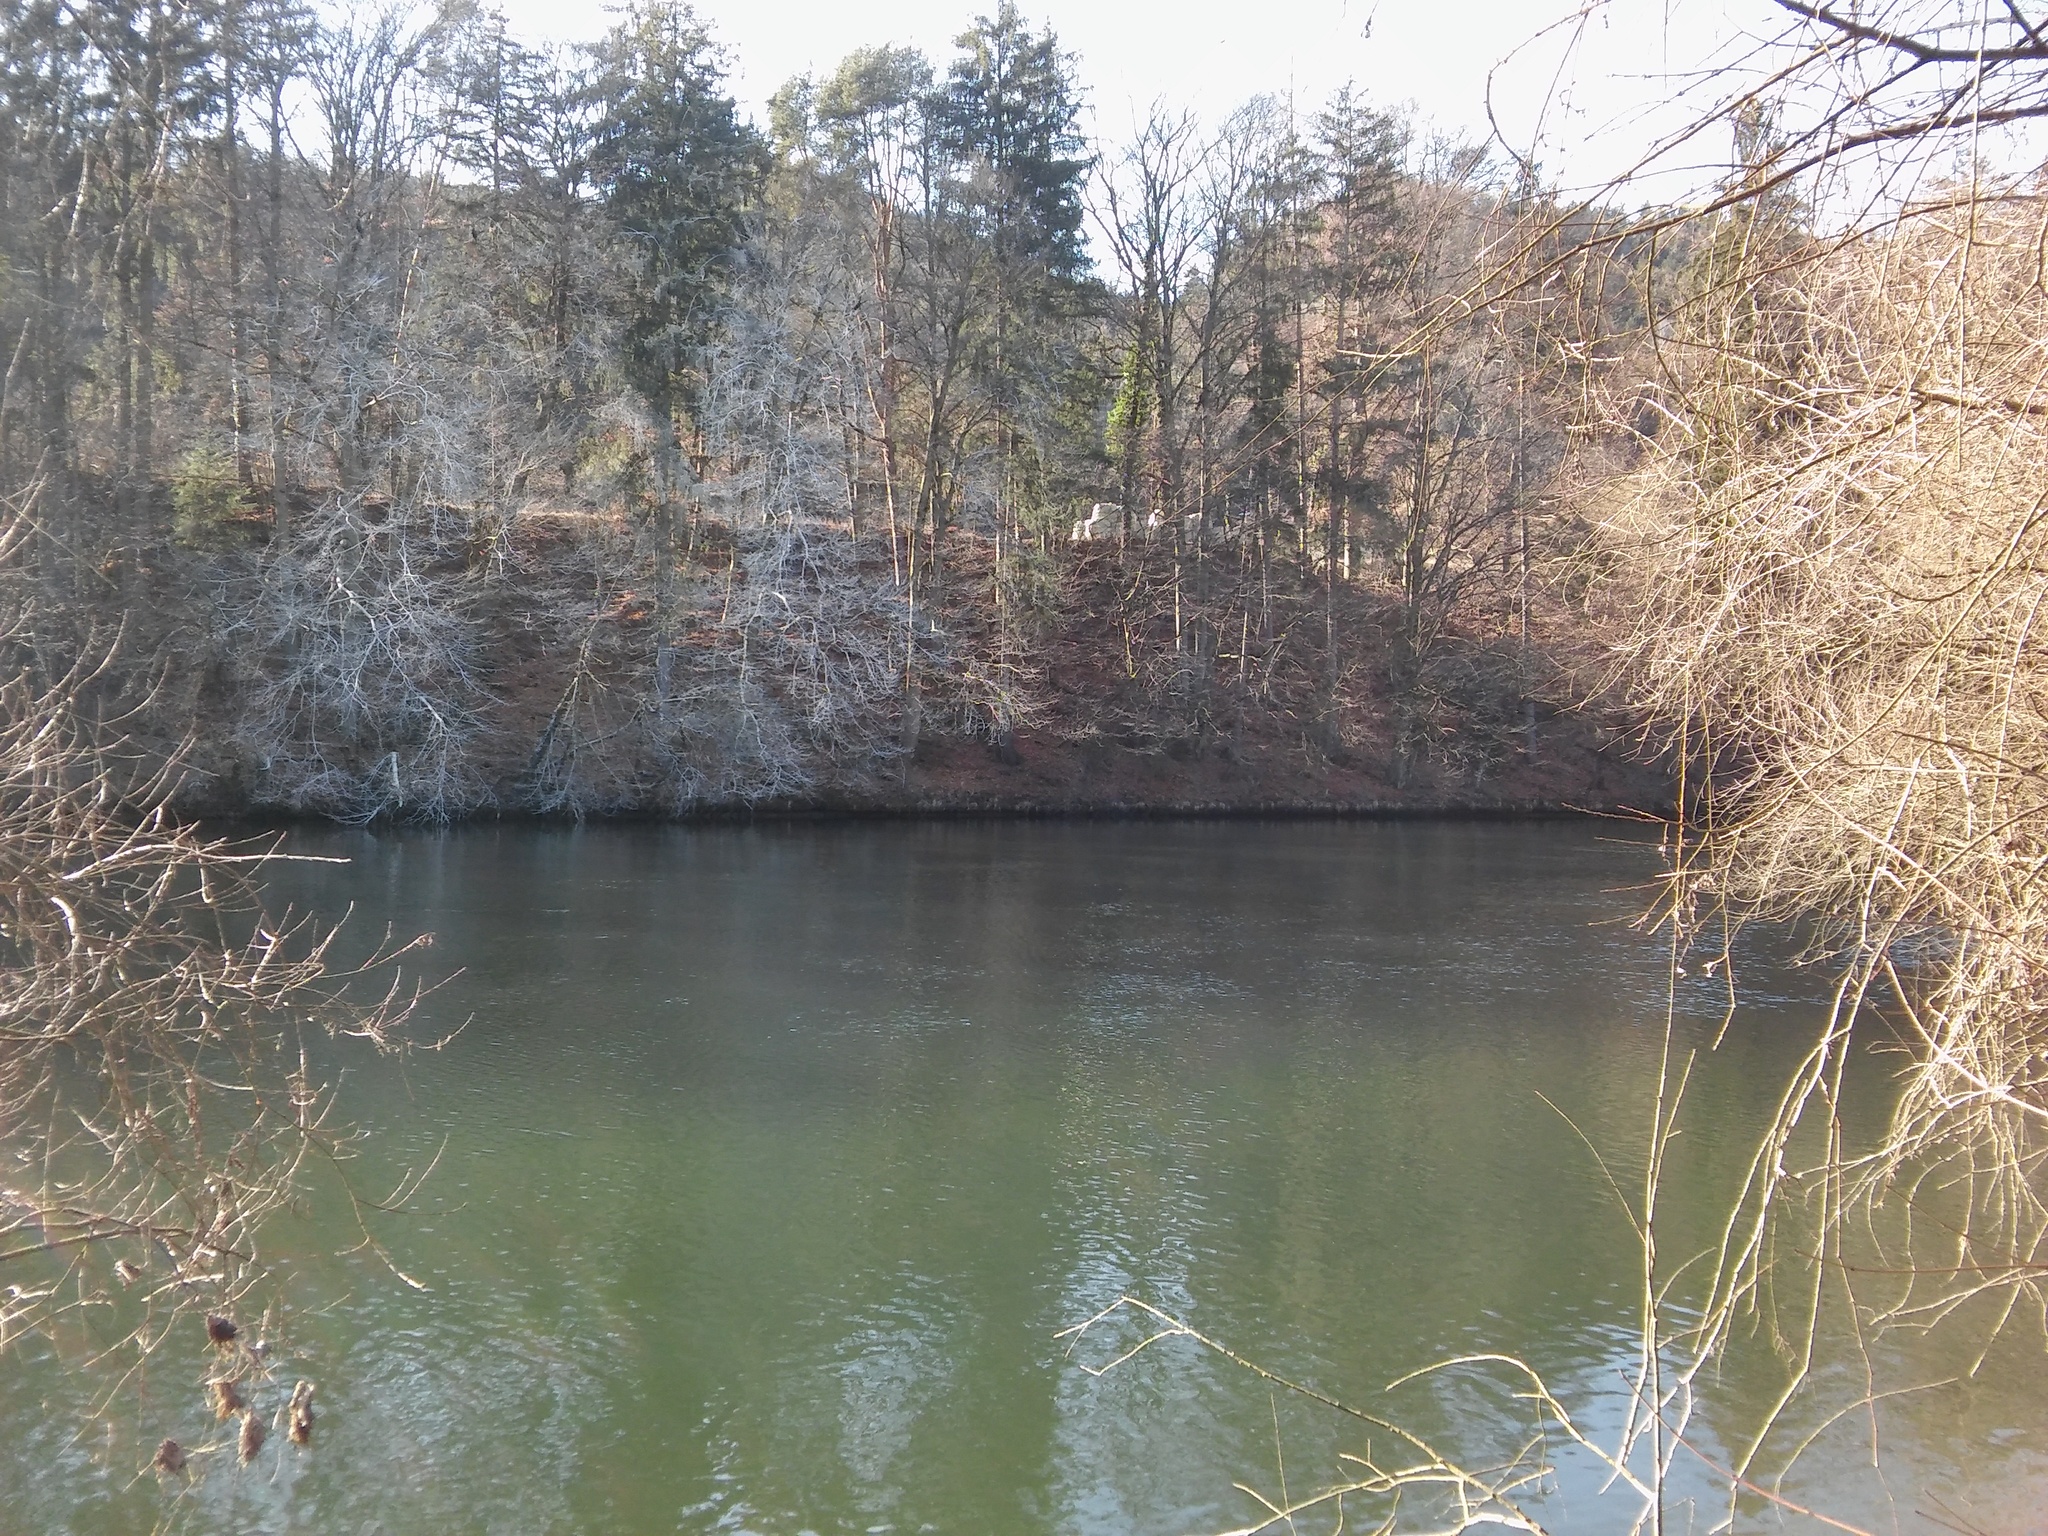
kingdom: Plantae
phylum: Tracheophyta
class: Magnoliopsida
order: Fagales
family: Fagaceae
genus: Fagus
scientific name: Fagus sylvatica
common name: Beech
